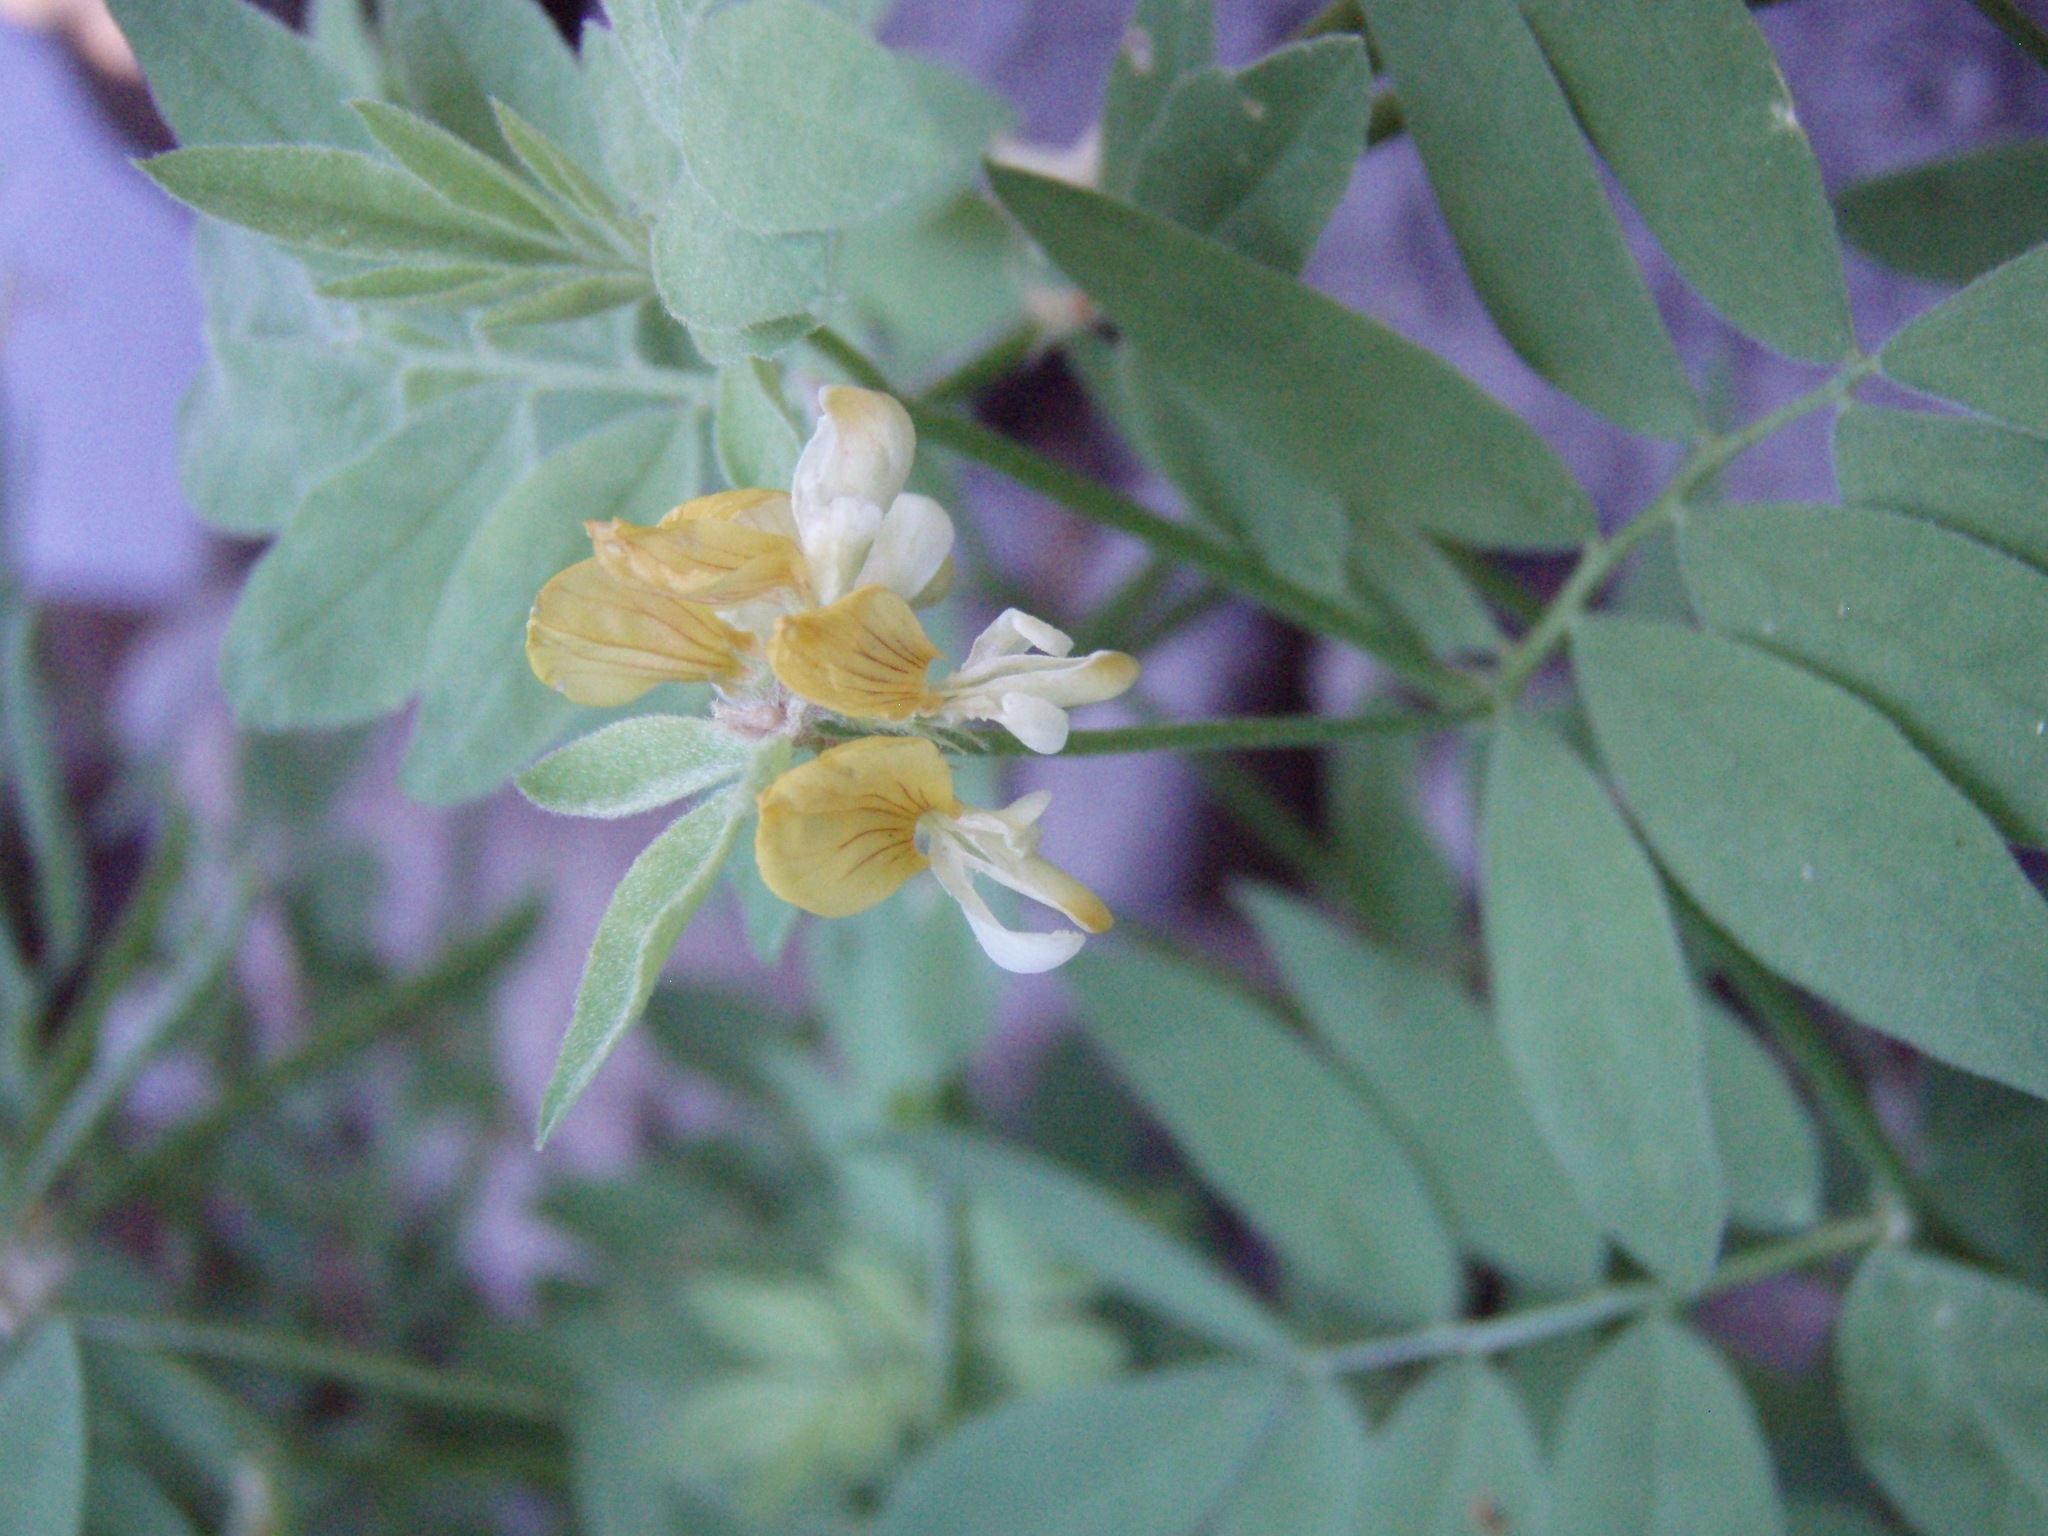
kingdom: Plantae
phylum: Tracheophyta
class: Magnoliopsida
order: Fabales
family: Fabaceae
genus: Hosackia
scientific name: Hosackia oblongifolia
